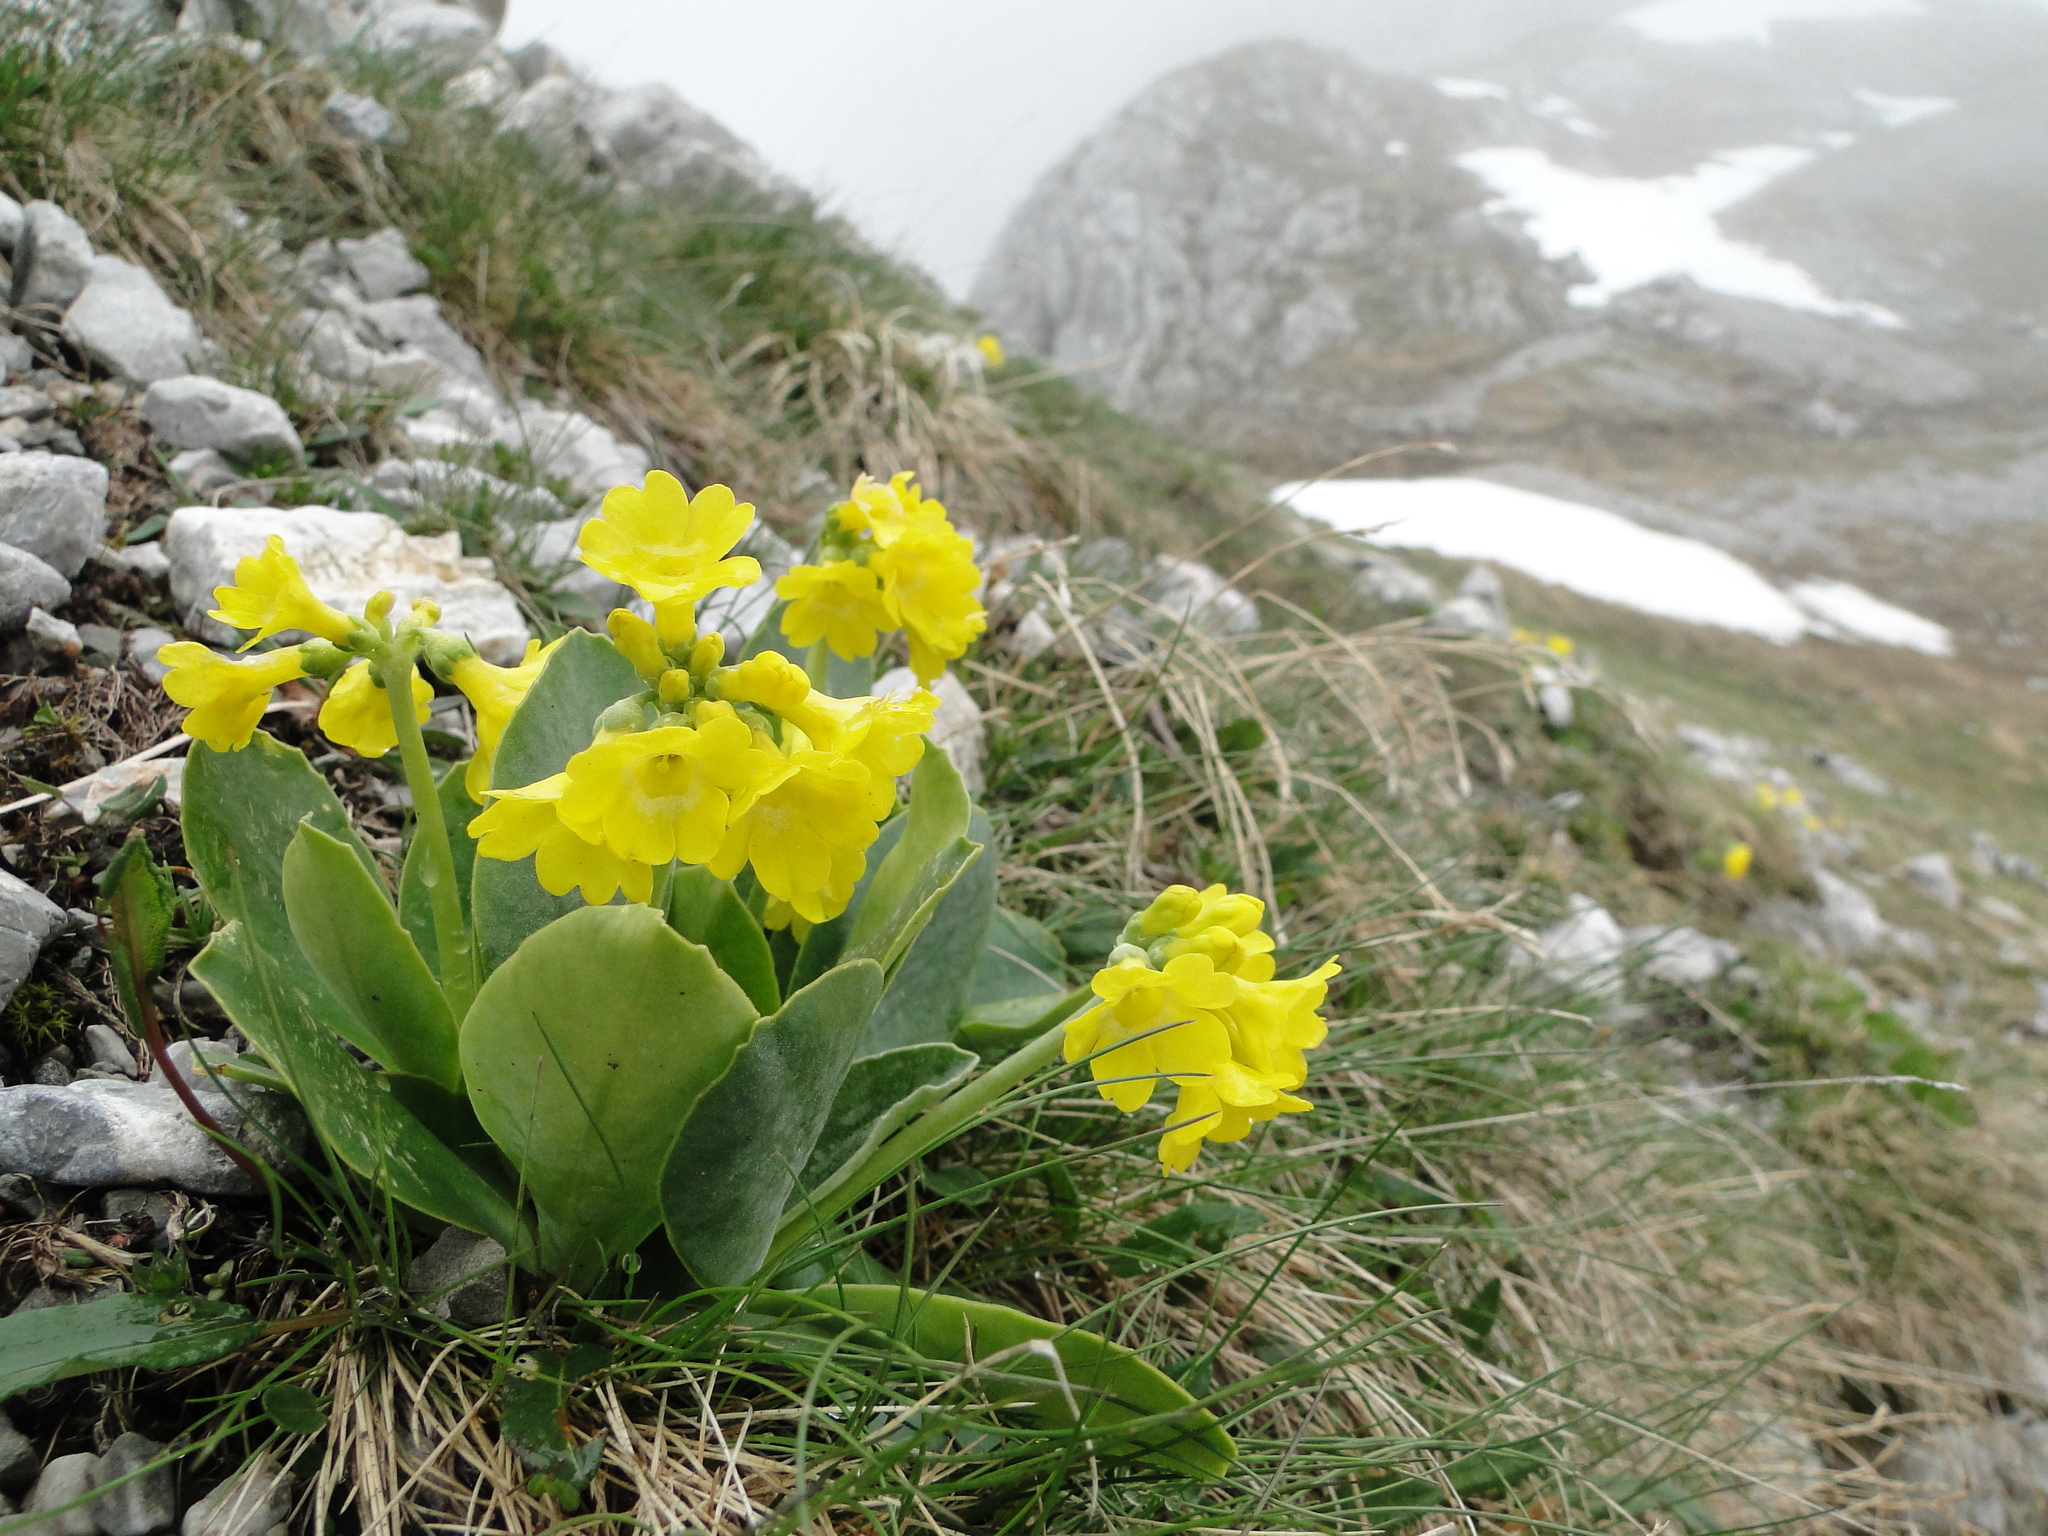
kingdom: Plantae
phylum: Tracheophyta
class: Magnoliopsida
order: Ericales
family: Primulaceae
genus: Primula
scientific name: Primula auricula
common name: Auricula
